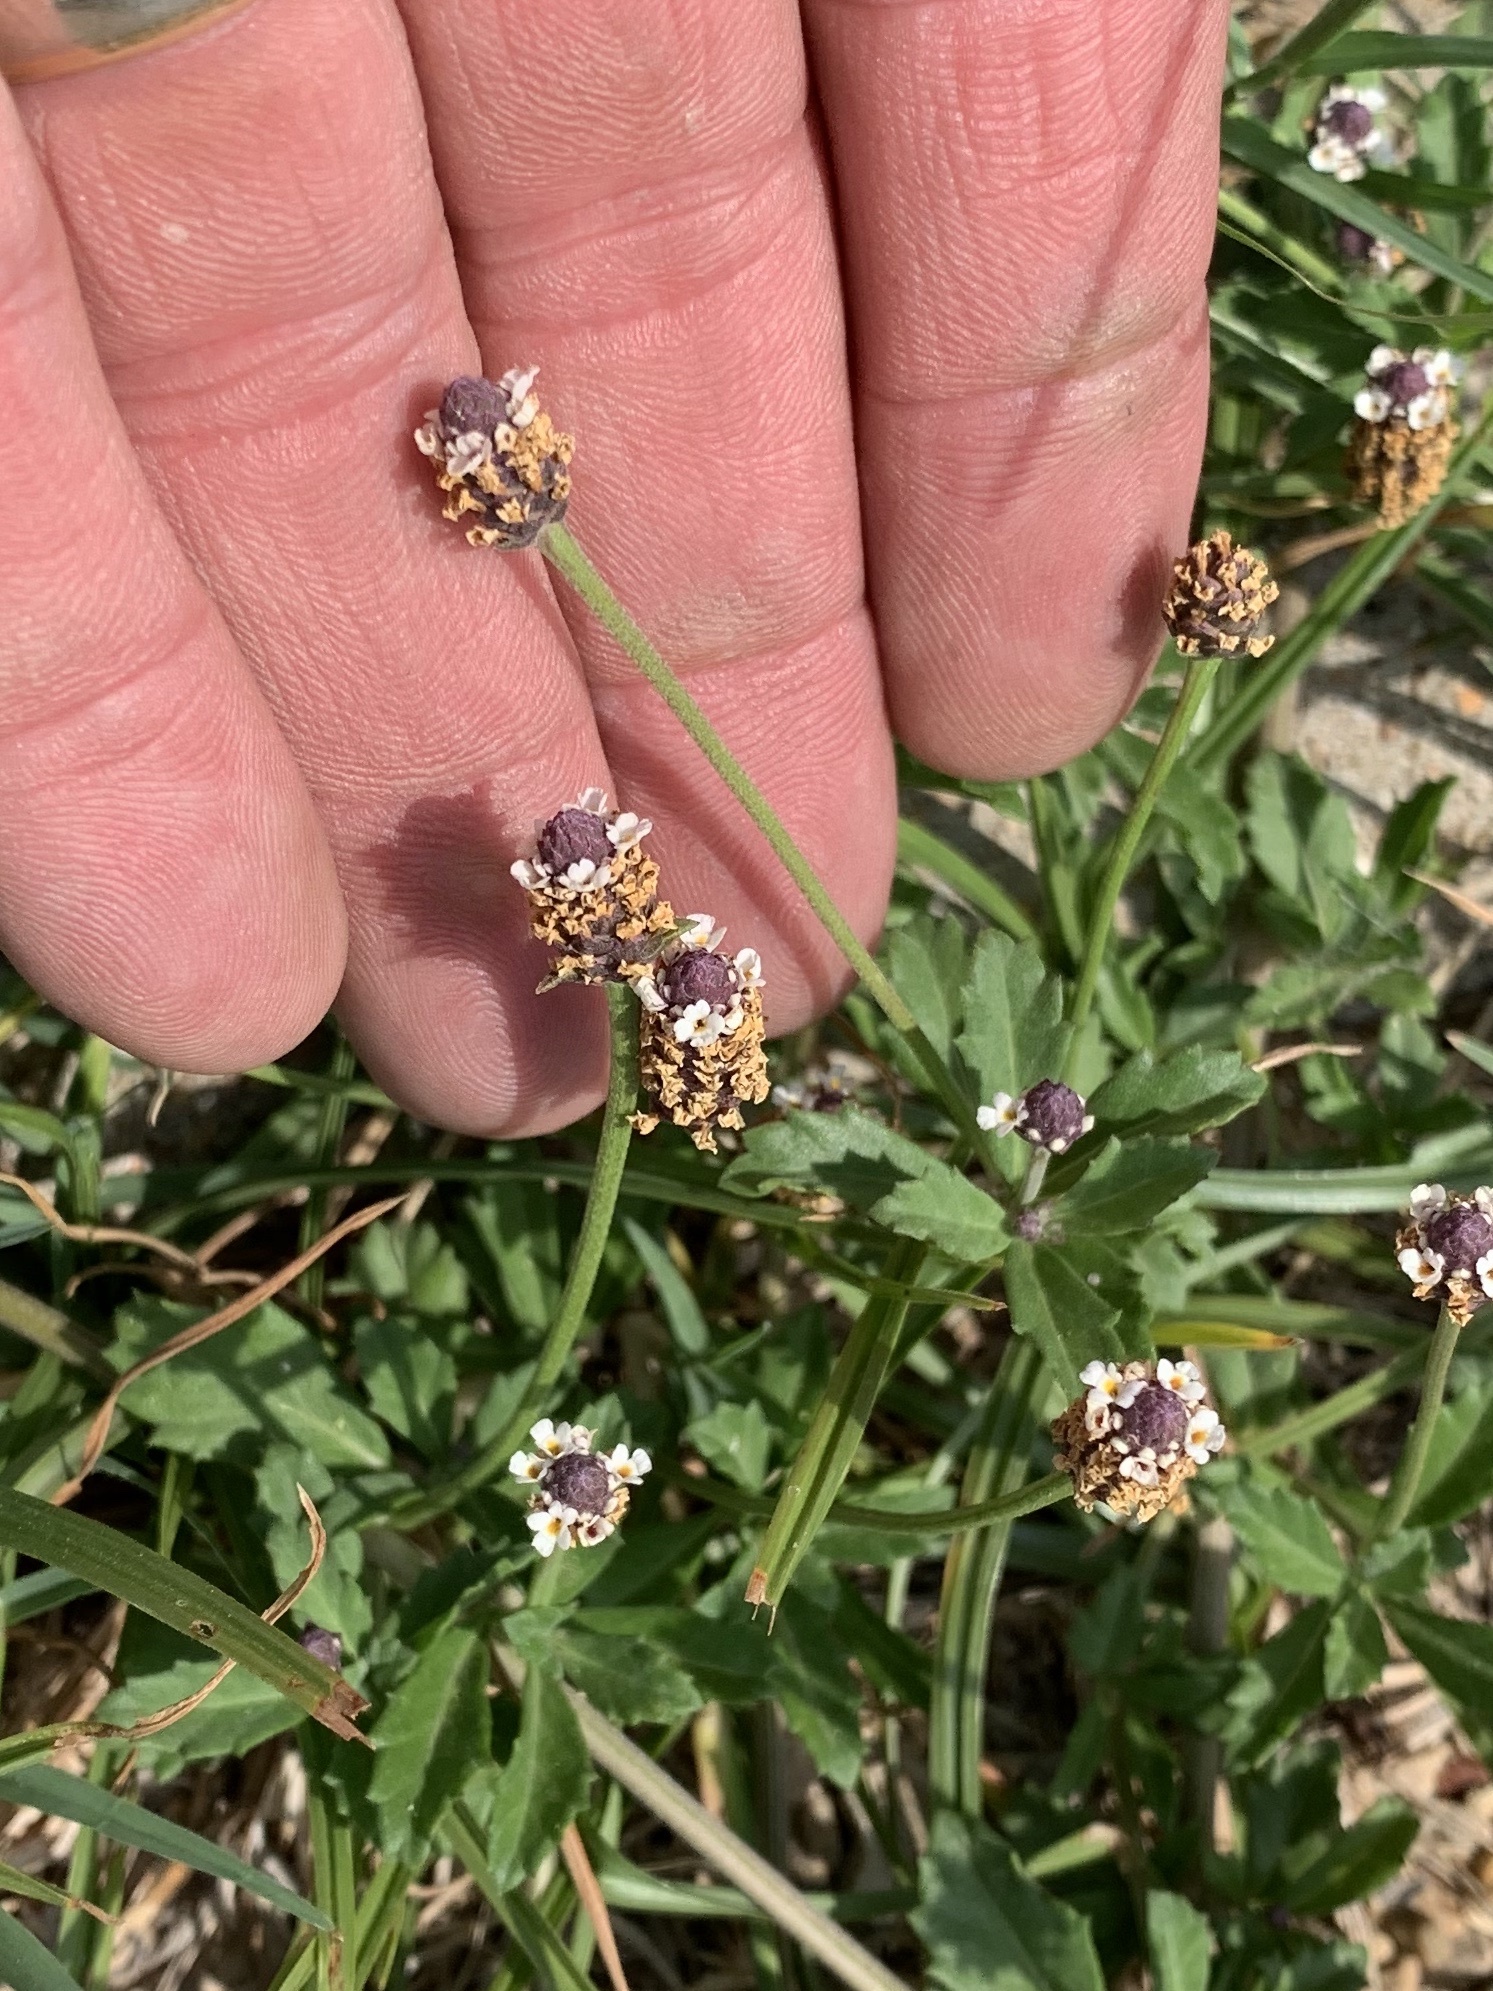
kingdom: Plantae
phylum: Tracheophyta
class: Magnoliopsida
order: Lamiales
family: Verbenaceae
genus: Phyla
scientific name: Phyla nodiflora
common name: Frogfruit
